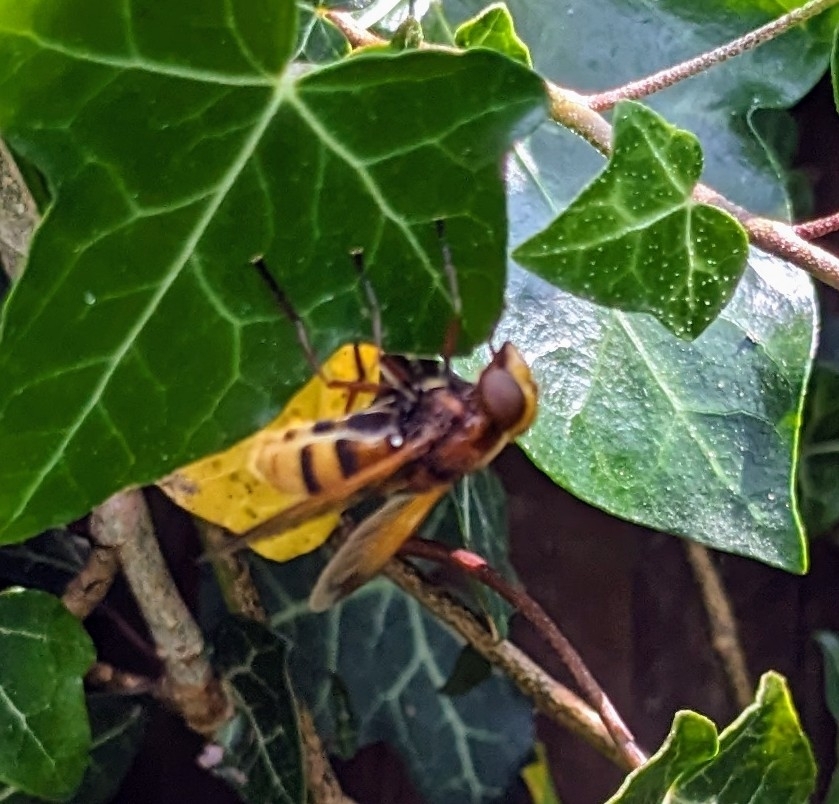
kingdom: Animalia
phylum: Arthropoda
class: Insecta
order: Diptera
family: Syrphidae
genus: Volucella
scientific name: Volucella zonaria
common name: Hornet hoverfly
